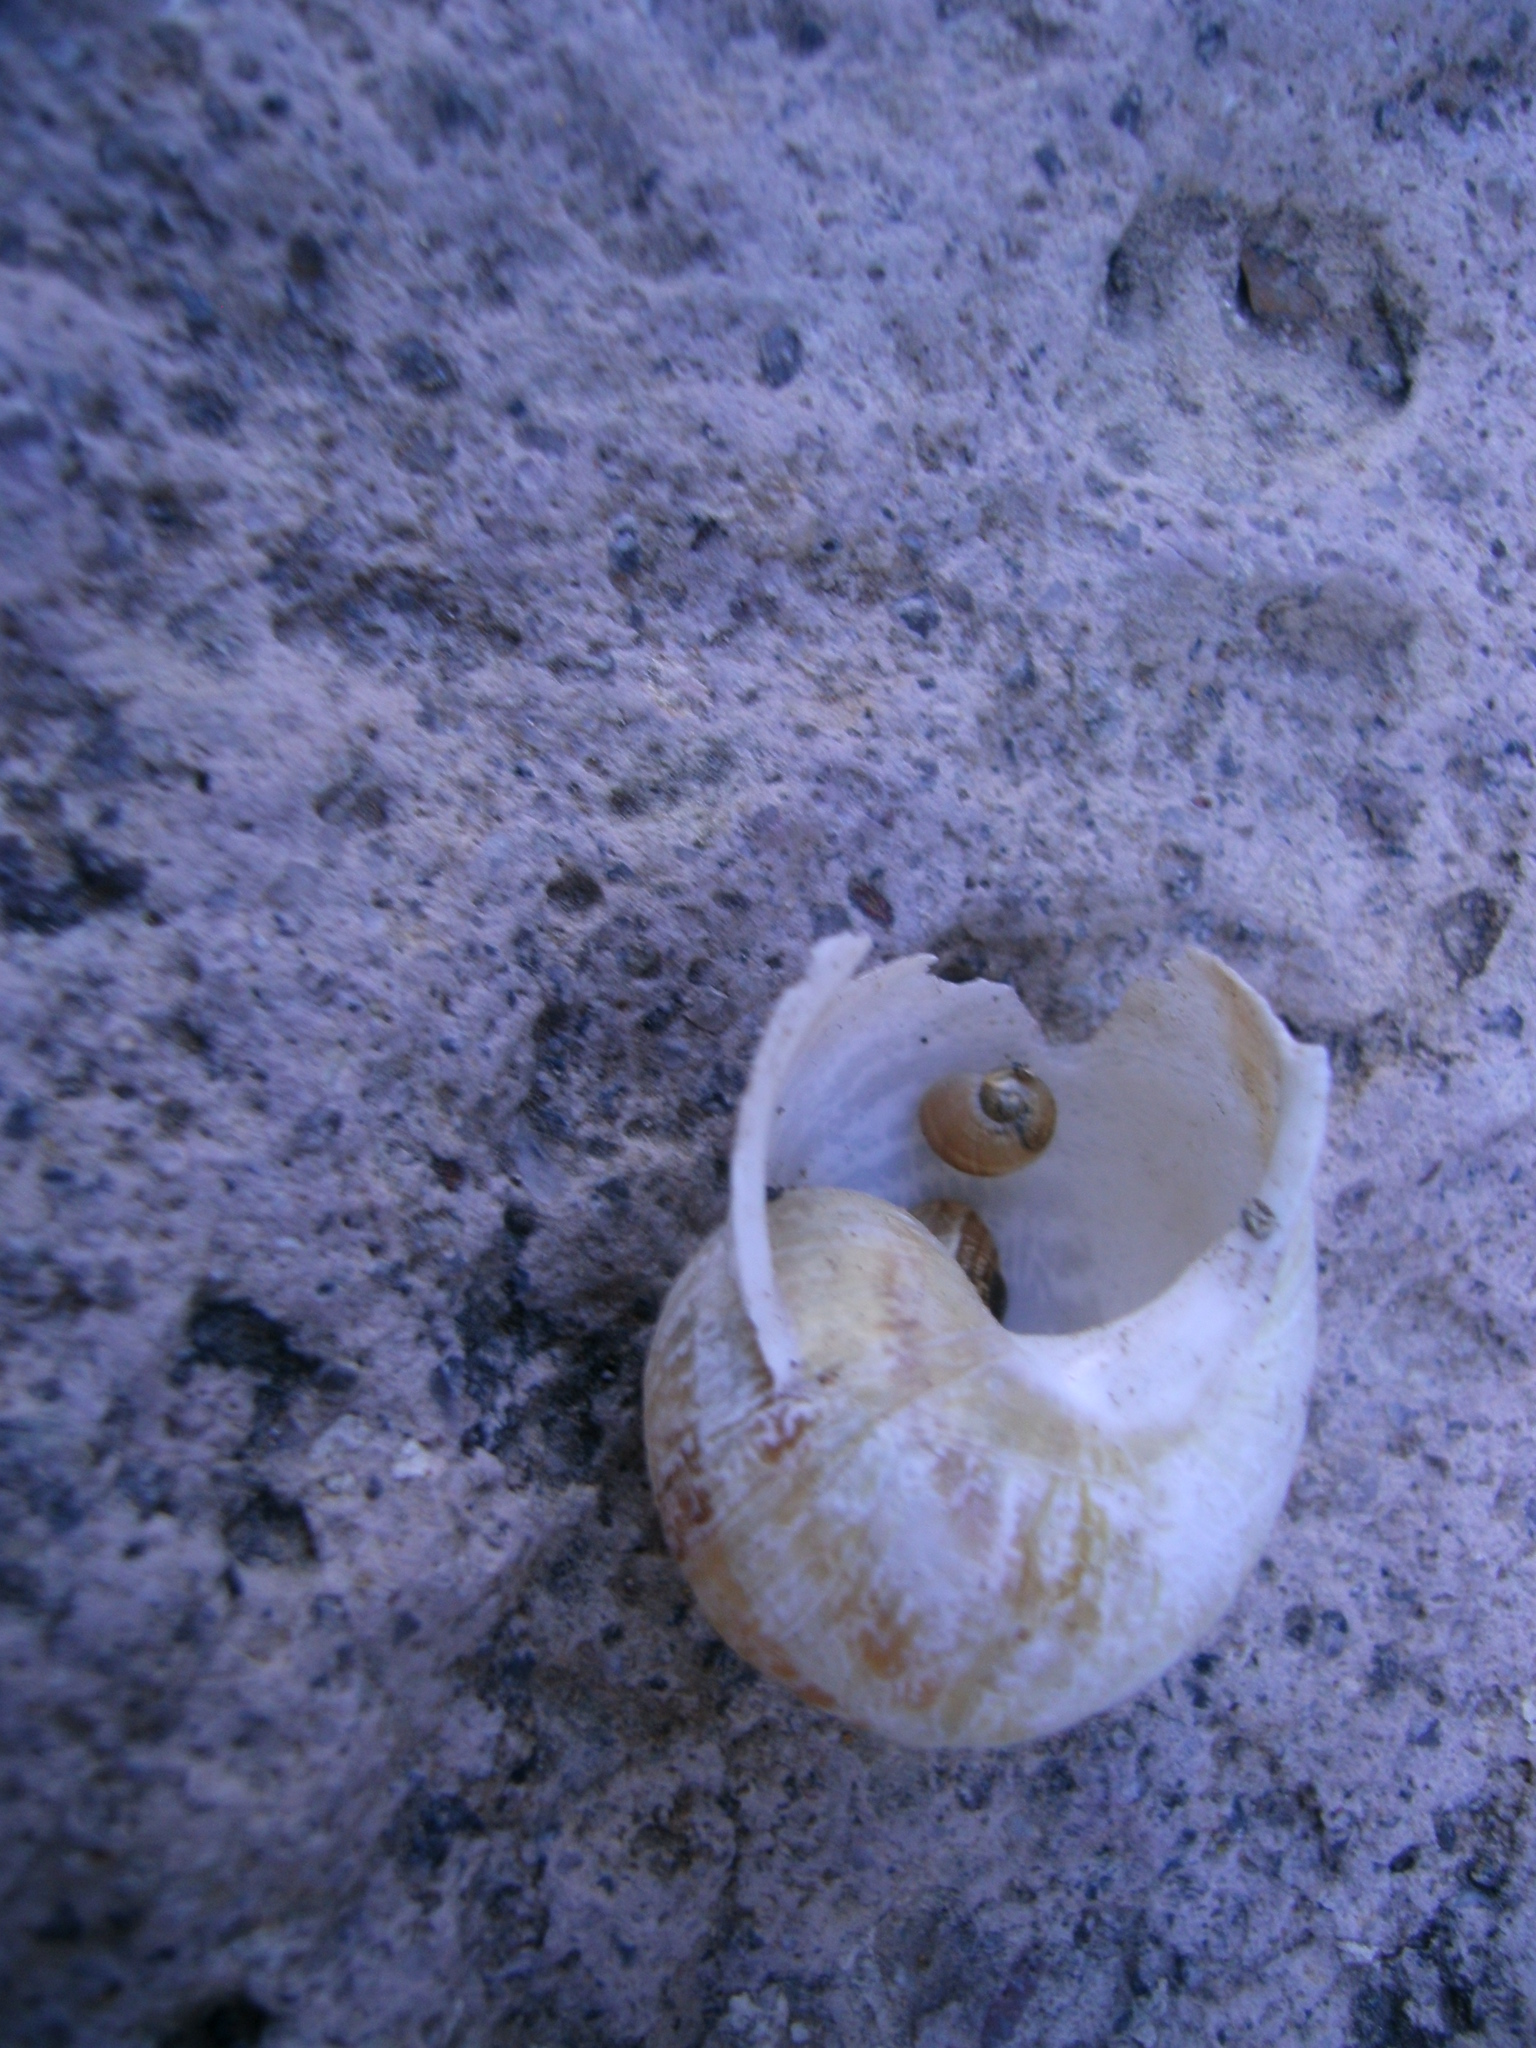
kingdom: Animalia
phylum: Mollusca
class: Gastropoda
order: Stylommatophora
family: Helicidae
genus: Cornu
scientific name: Cornu aspersum
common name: Brown garden snail
